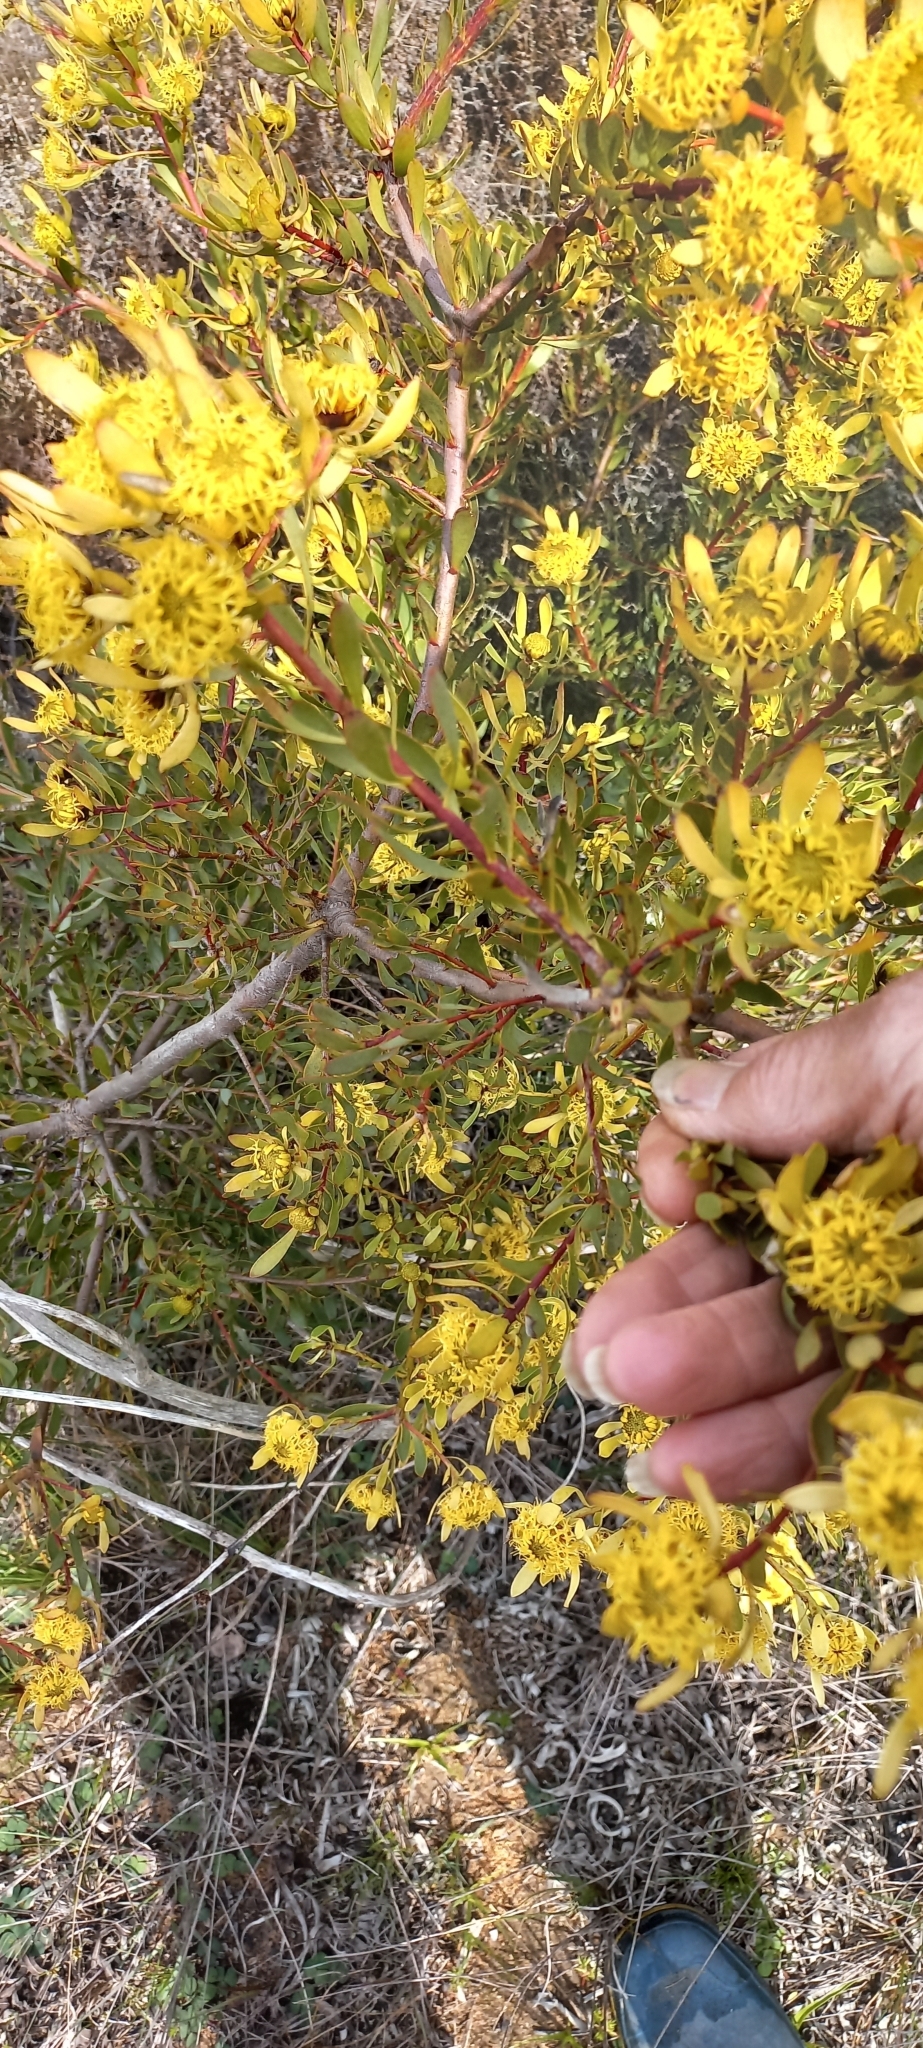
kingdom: Plantae
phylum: Tracheophyta
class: Magnoliopsida
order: Proteales
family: Proteaceae
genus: Leucadendron
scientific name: Leucadendron chamelaea
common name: Witsenberg conebush
